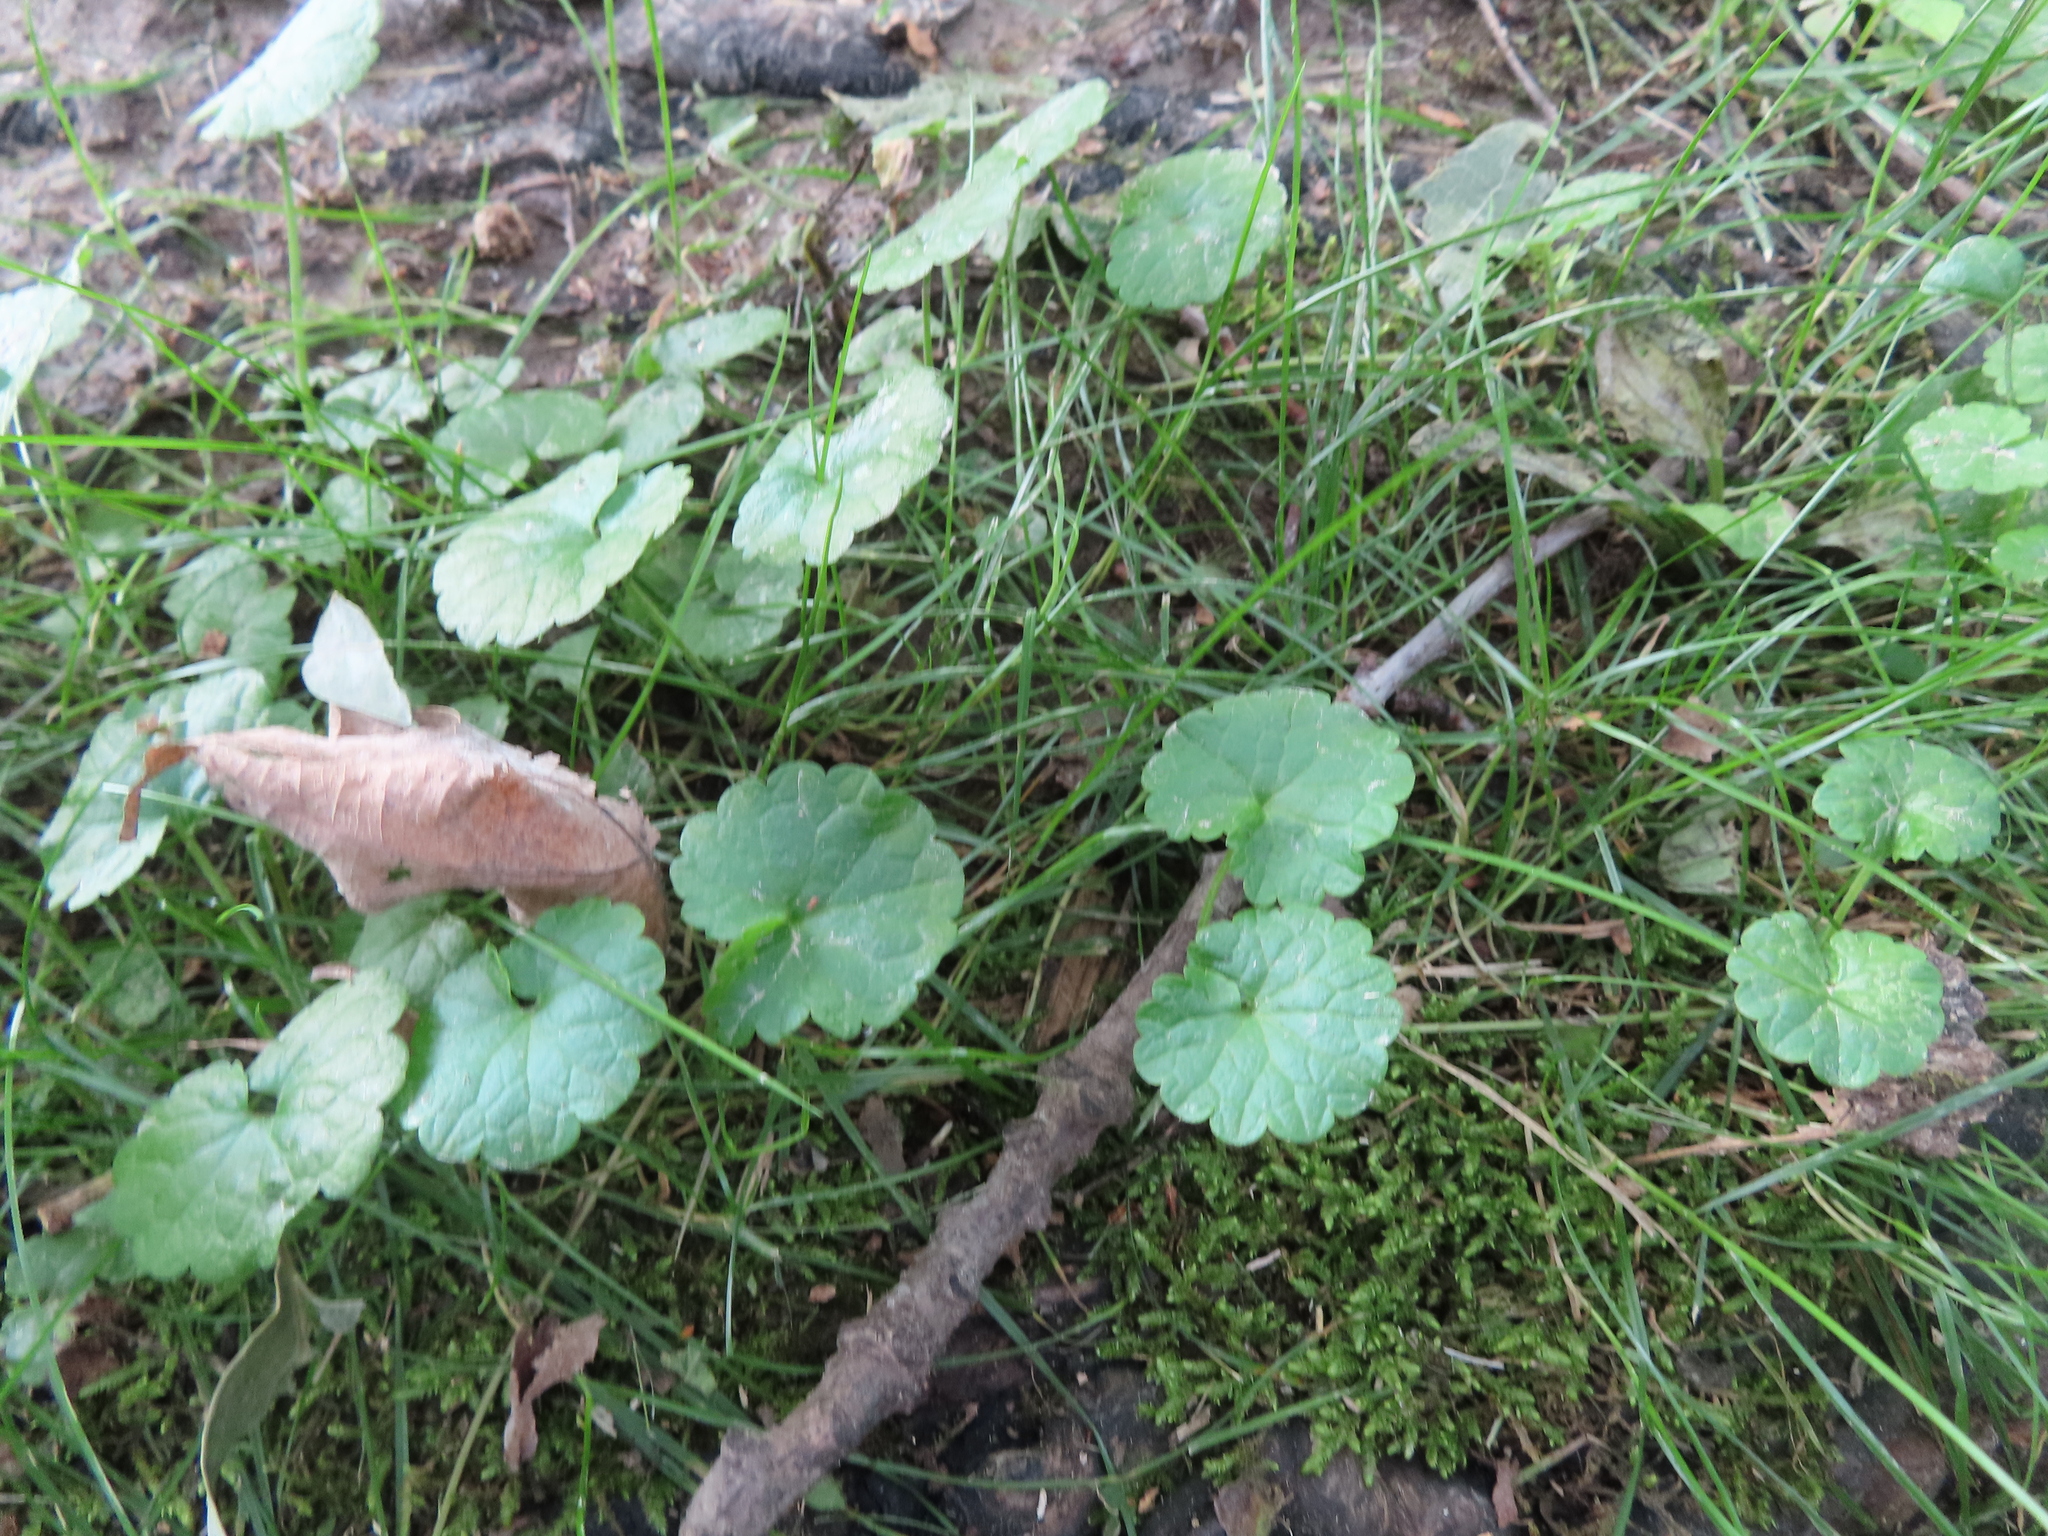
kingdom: Plantae
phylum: Tracheophyta
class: Magnoliopsida
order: Lamiales
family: Lamiaceae
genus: Glechoma
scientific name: Glechoma hederacea
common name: Ground ivy
